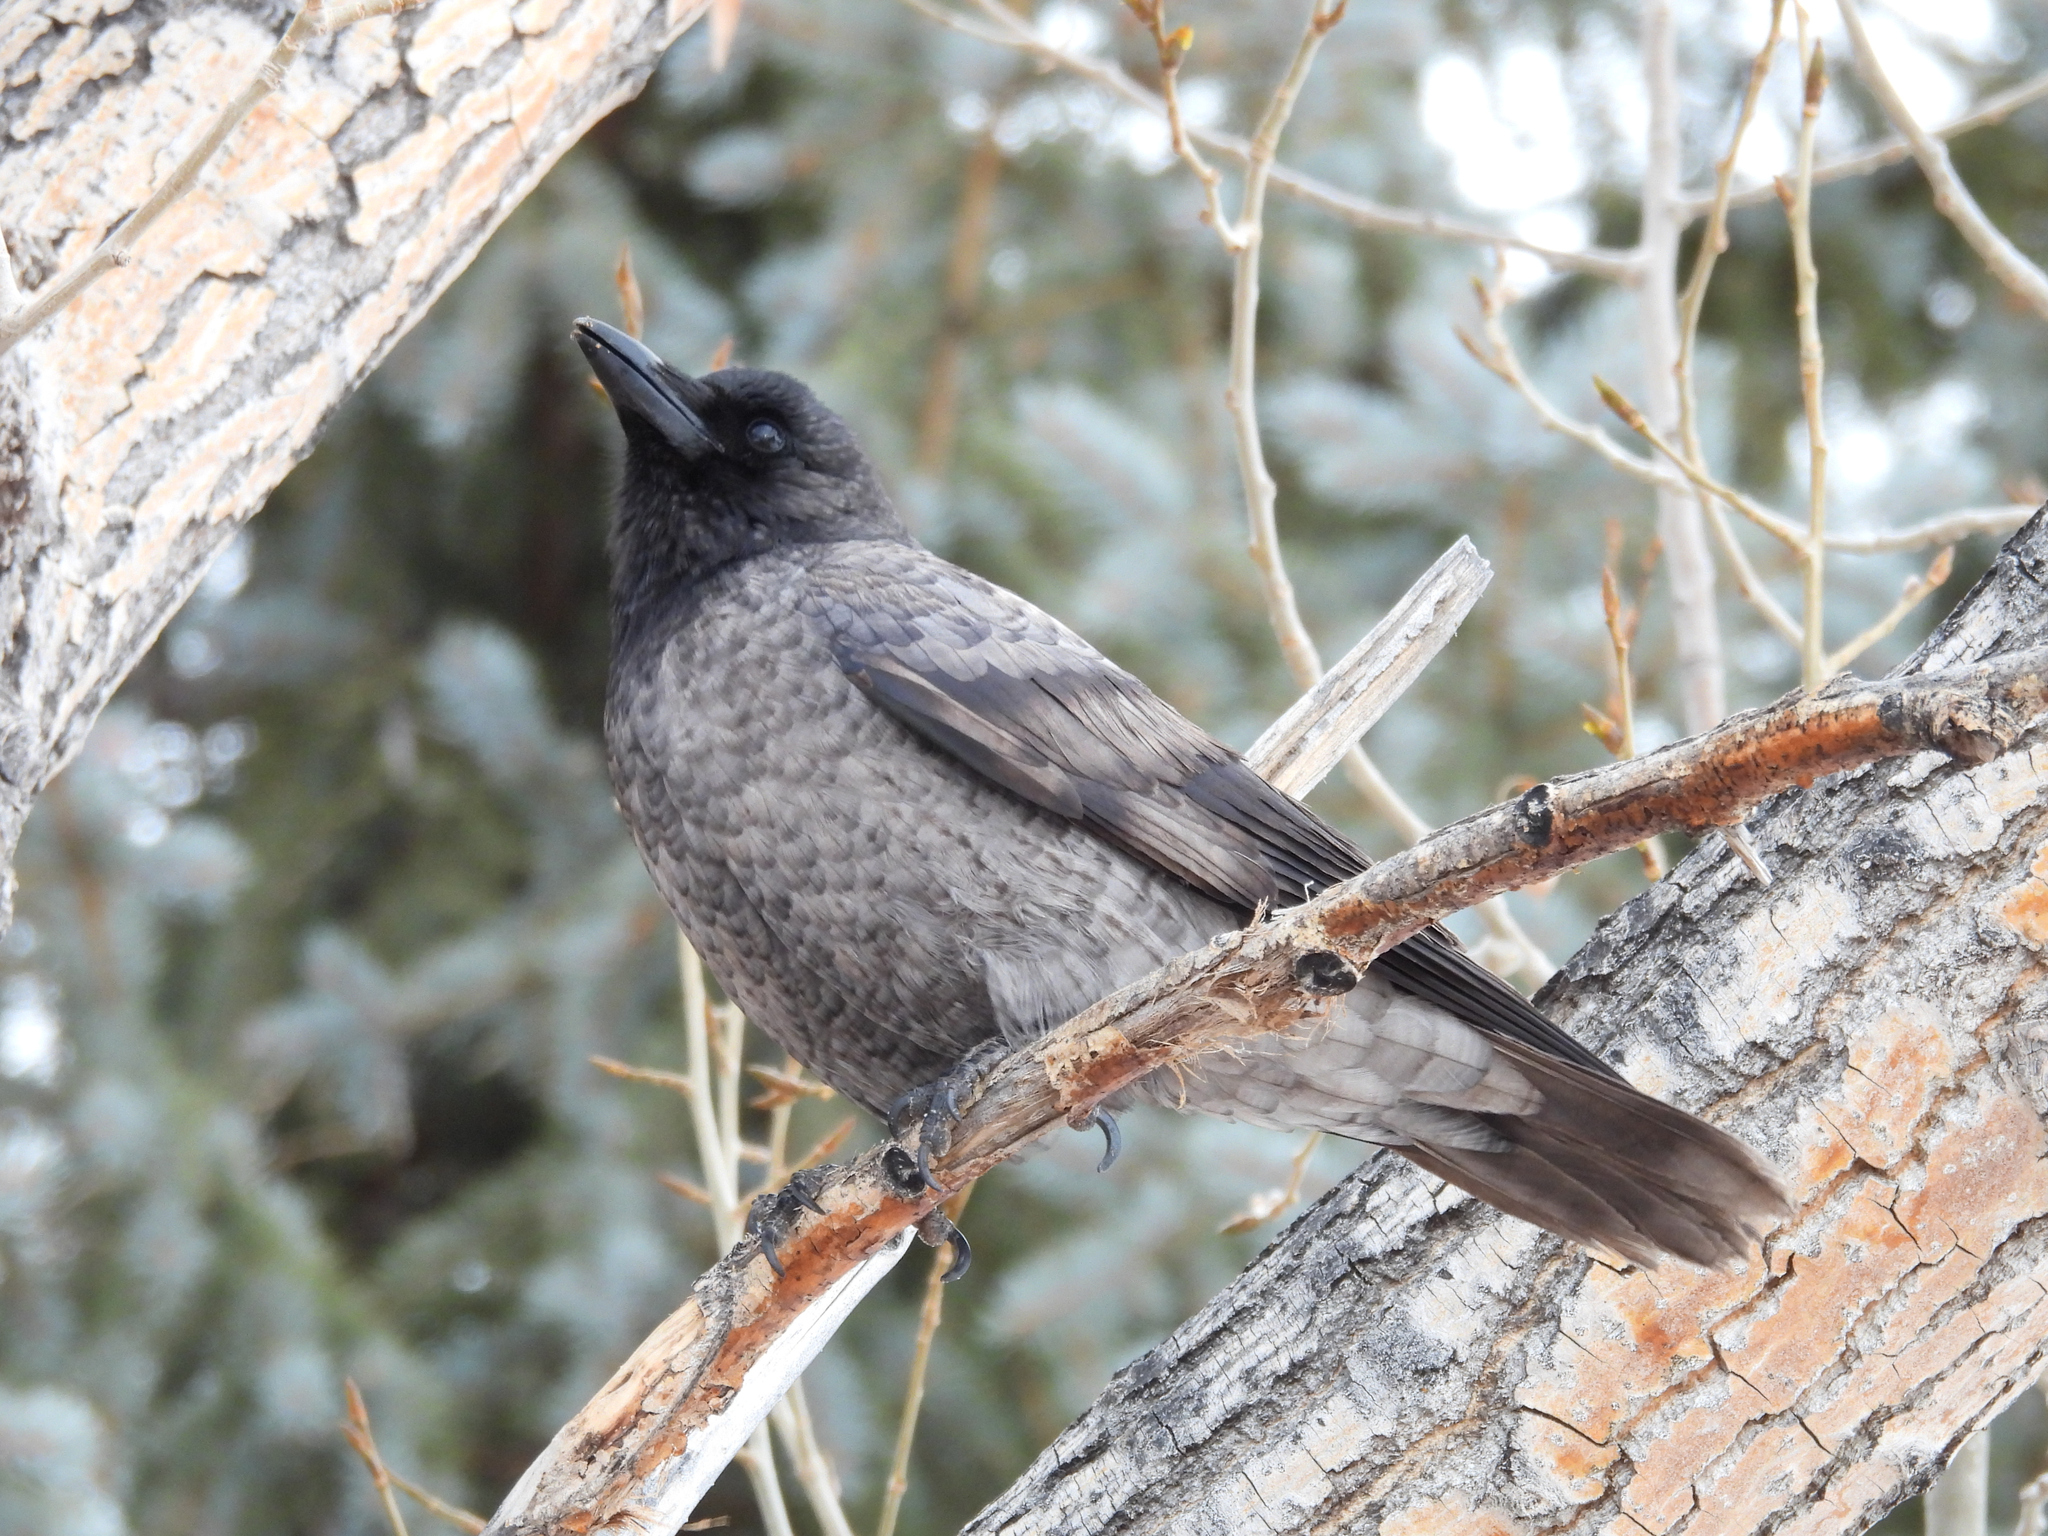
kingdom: Animalia
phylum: Chordata
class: Aves
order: Passeriformes
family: Corvidae
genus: Corvus
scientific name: Corvus brachyrhynchos
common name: American crow
